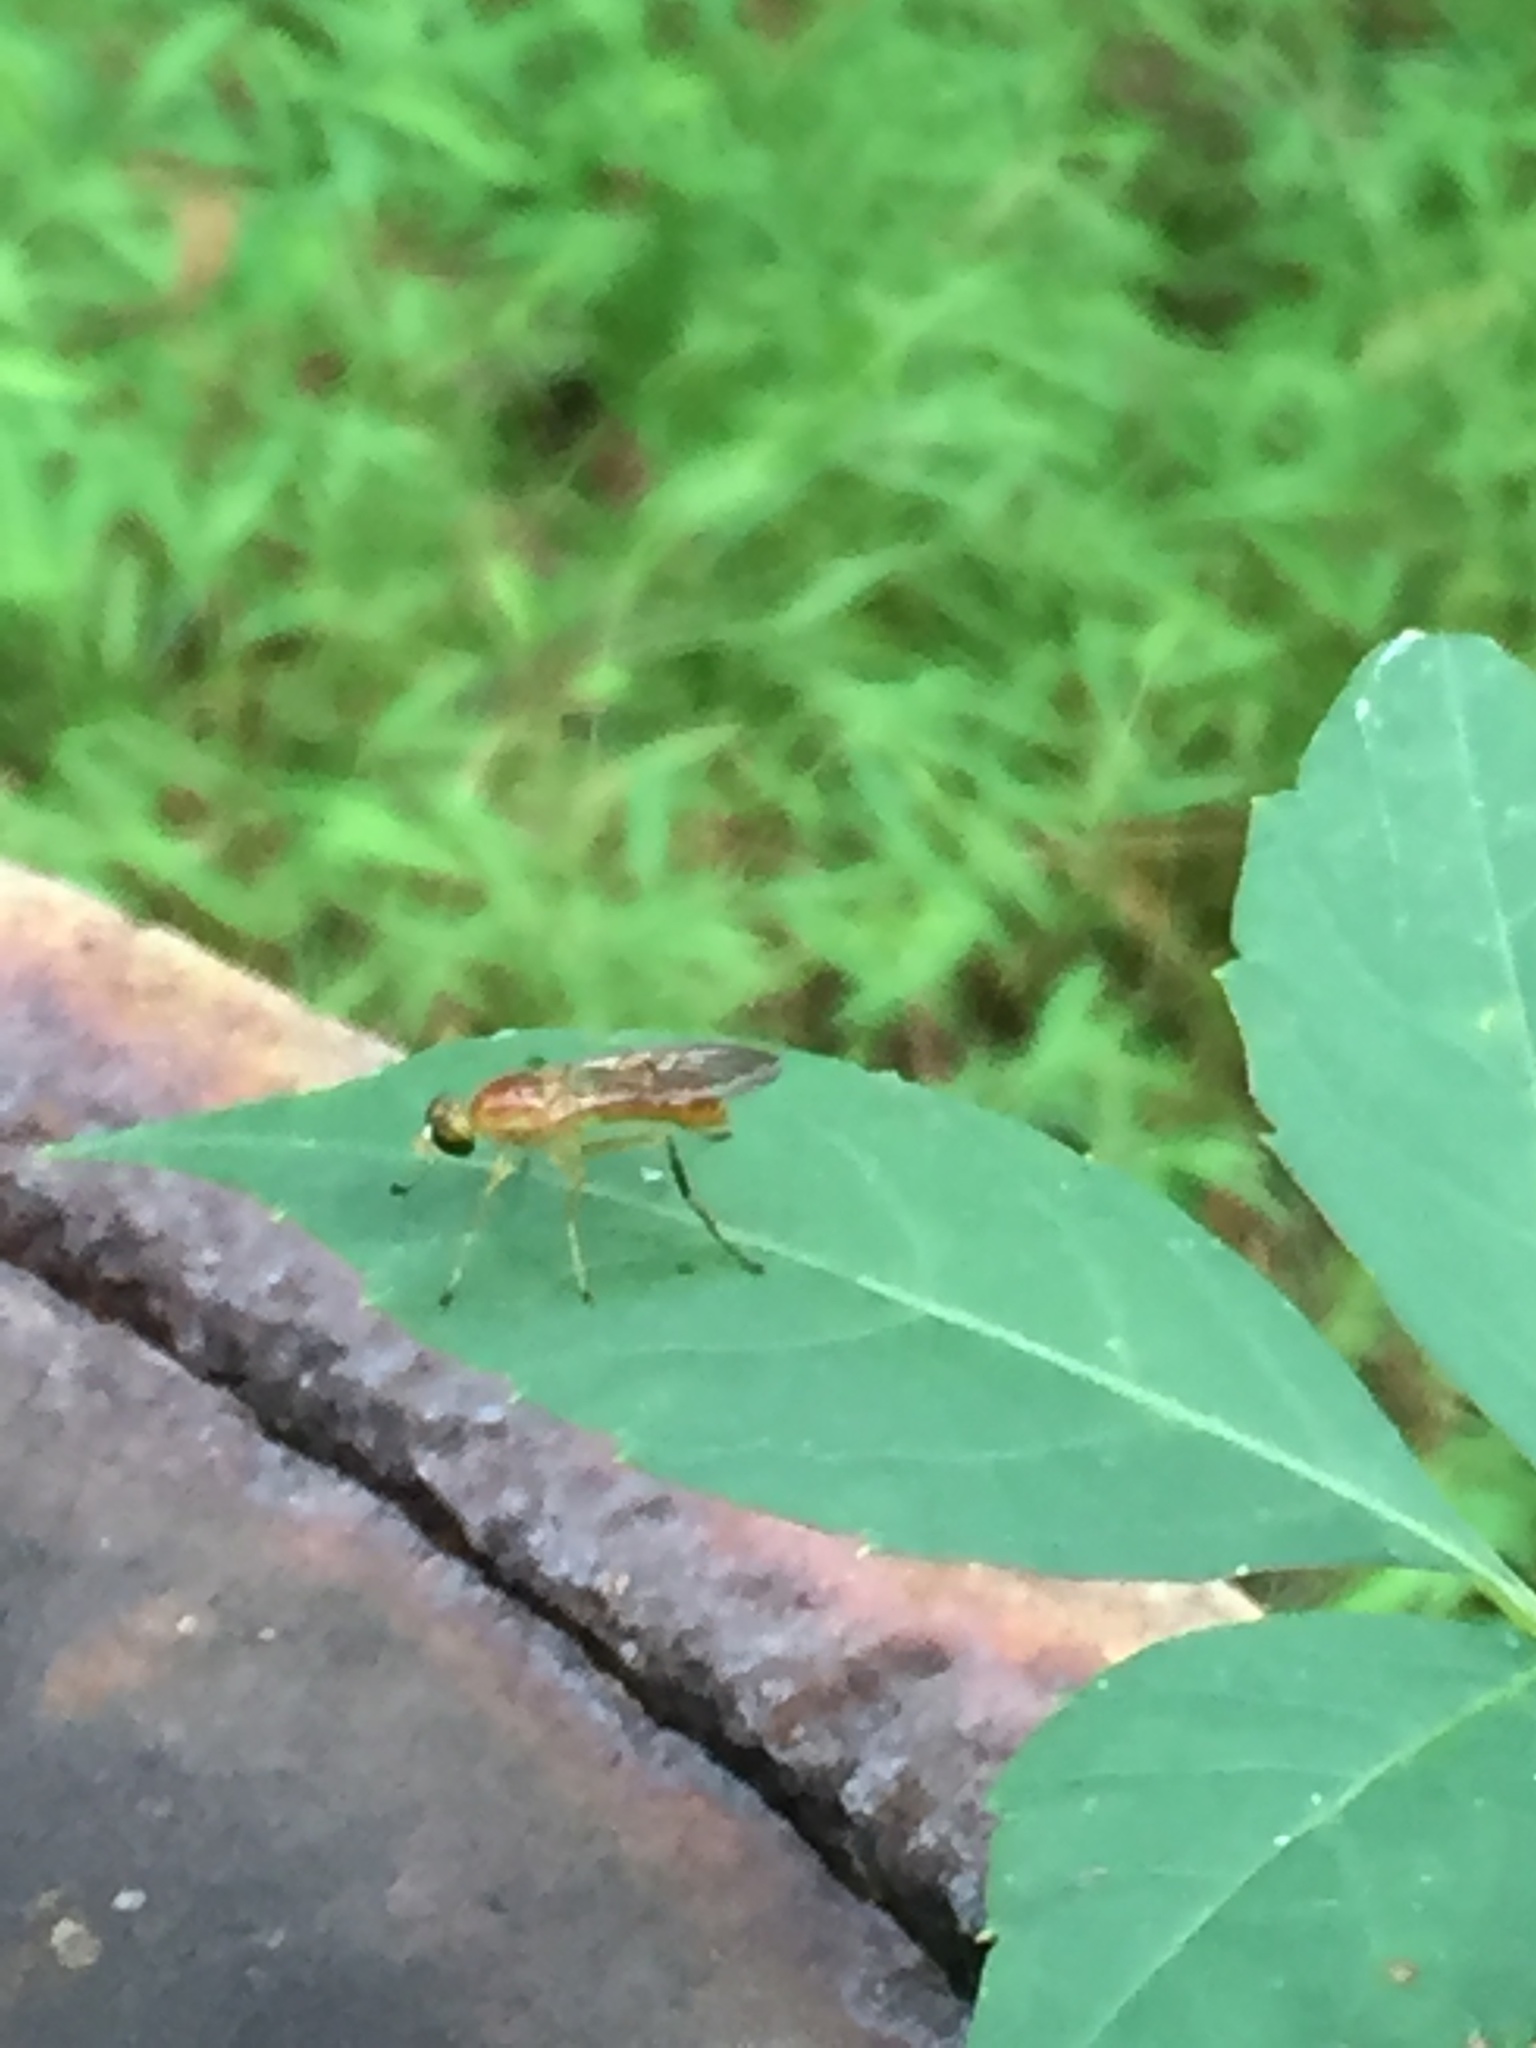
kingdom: Animalia
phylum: Arthropoda
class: Insecta
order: Diptera
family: Stratiomyidae
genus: Ptecticus
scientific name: Ptecticus trivittatus
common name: Compost fly
